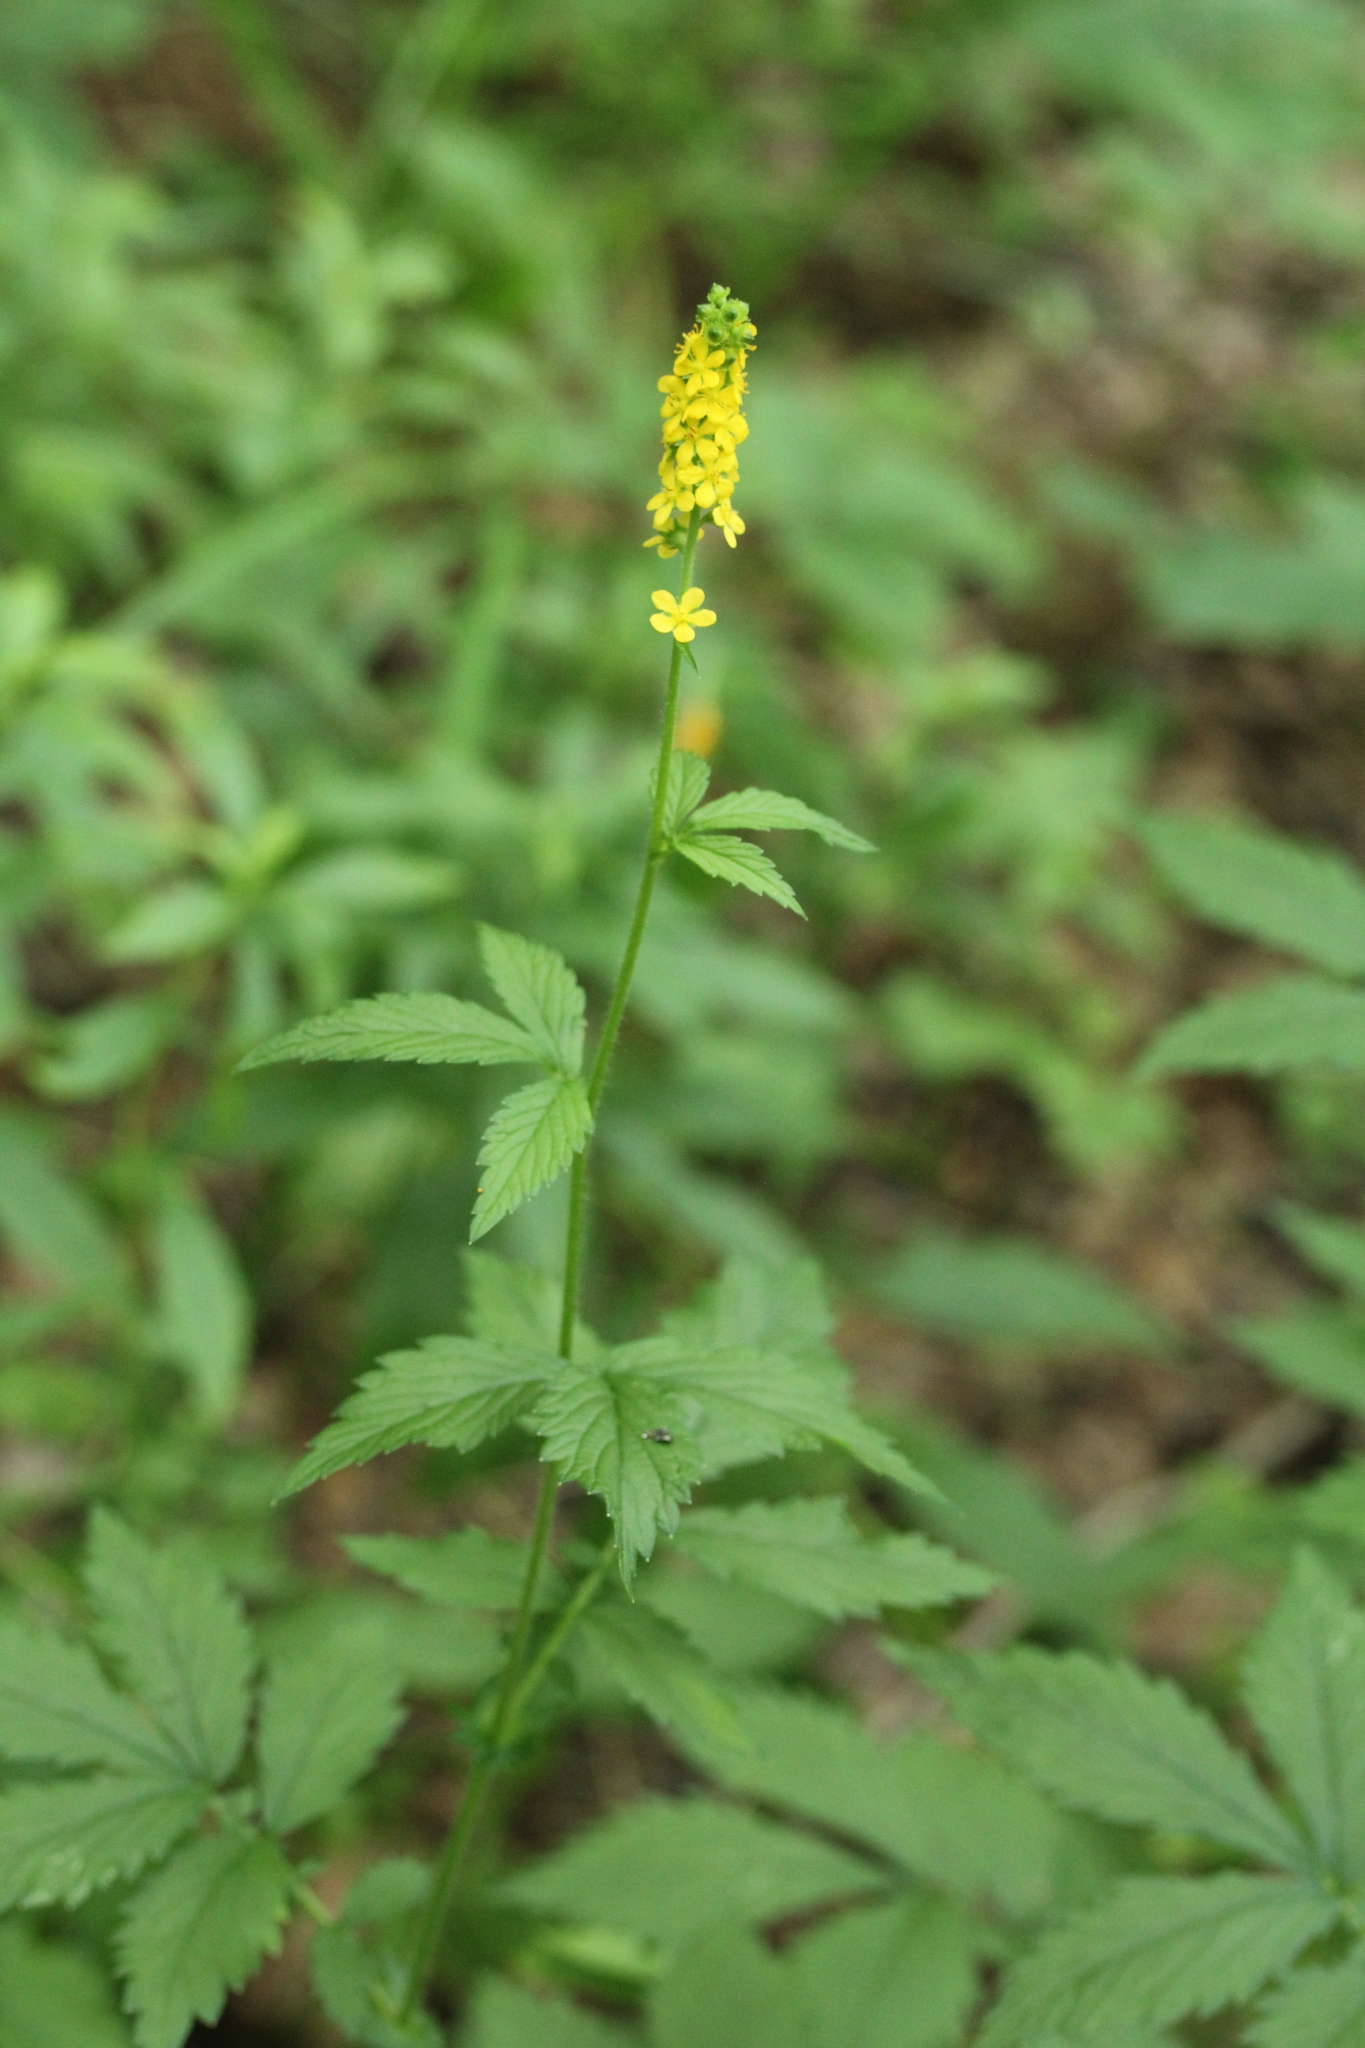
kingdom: Plantae
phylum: Tracheophyta
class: Magnoliopsida
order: Rosales
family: Rosaceae
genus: Agrimonia
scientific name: Agrimonia striata
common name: Britton's agrimony
